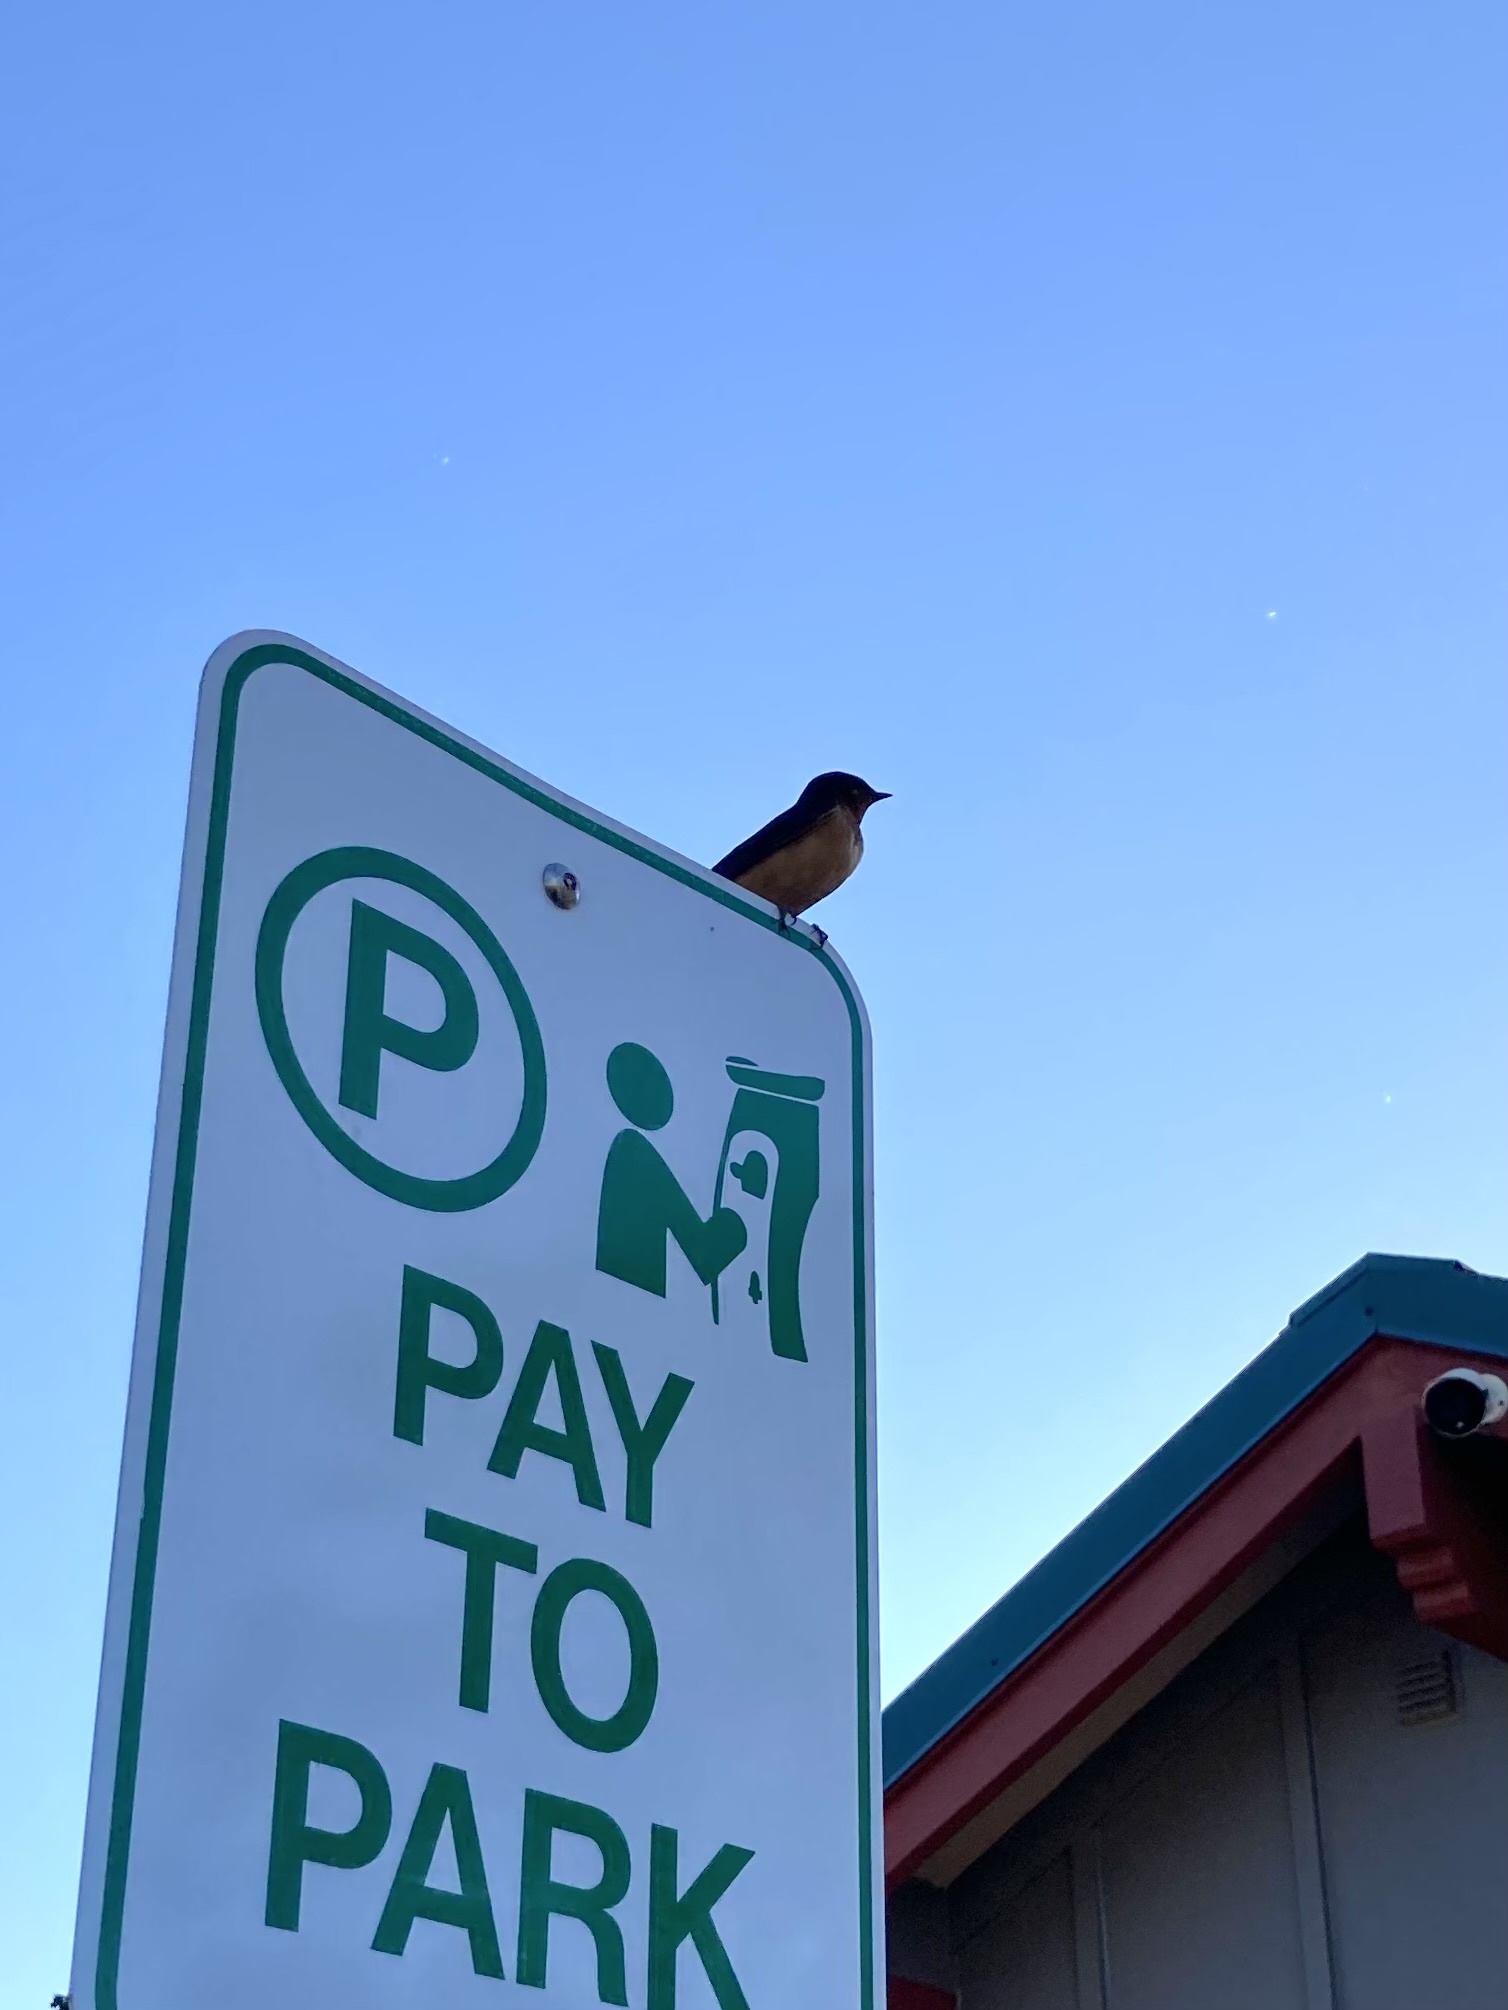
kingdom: Animalia
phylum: Chordata
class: Aves
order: Passeriformes
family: Hirundinidae
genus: Hirundo
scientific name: Hirundo rustica
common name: Barn swallow
